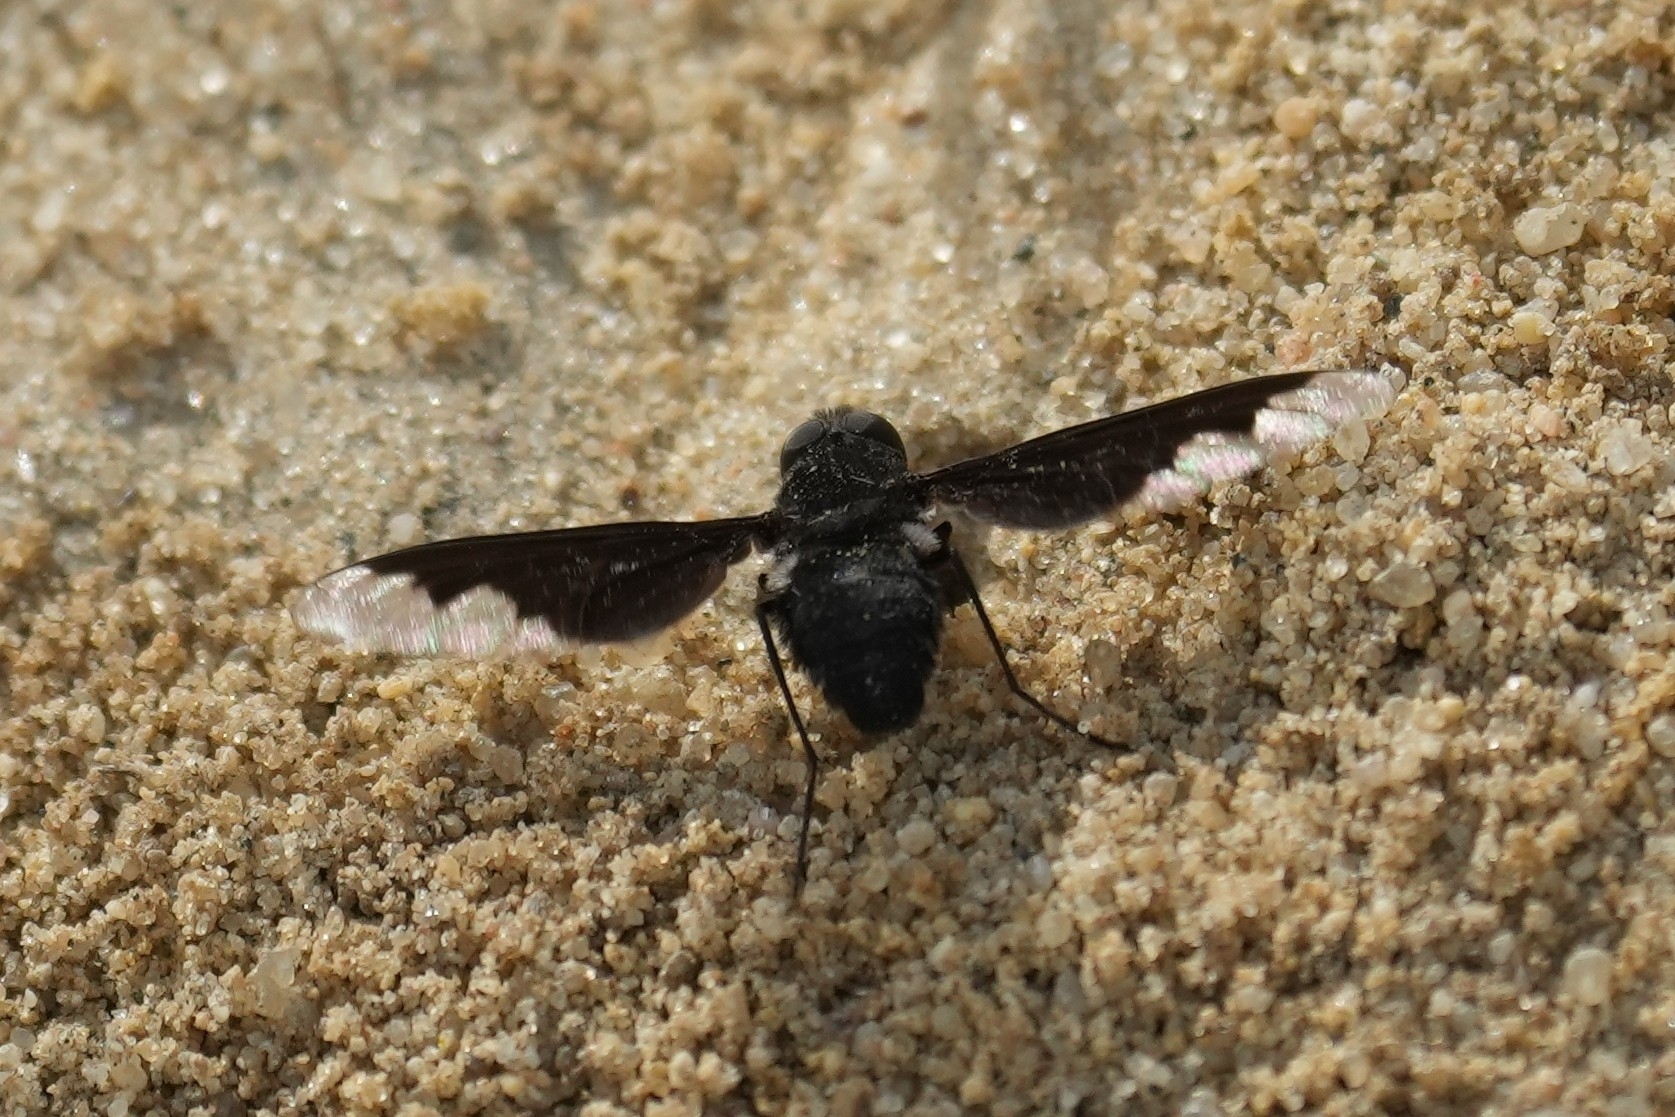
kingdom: Animalia
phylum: Arthropoda
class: Insecta
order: Diptera
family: Bombyliidae
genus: Anthrax
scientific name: Anthrax analis
